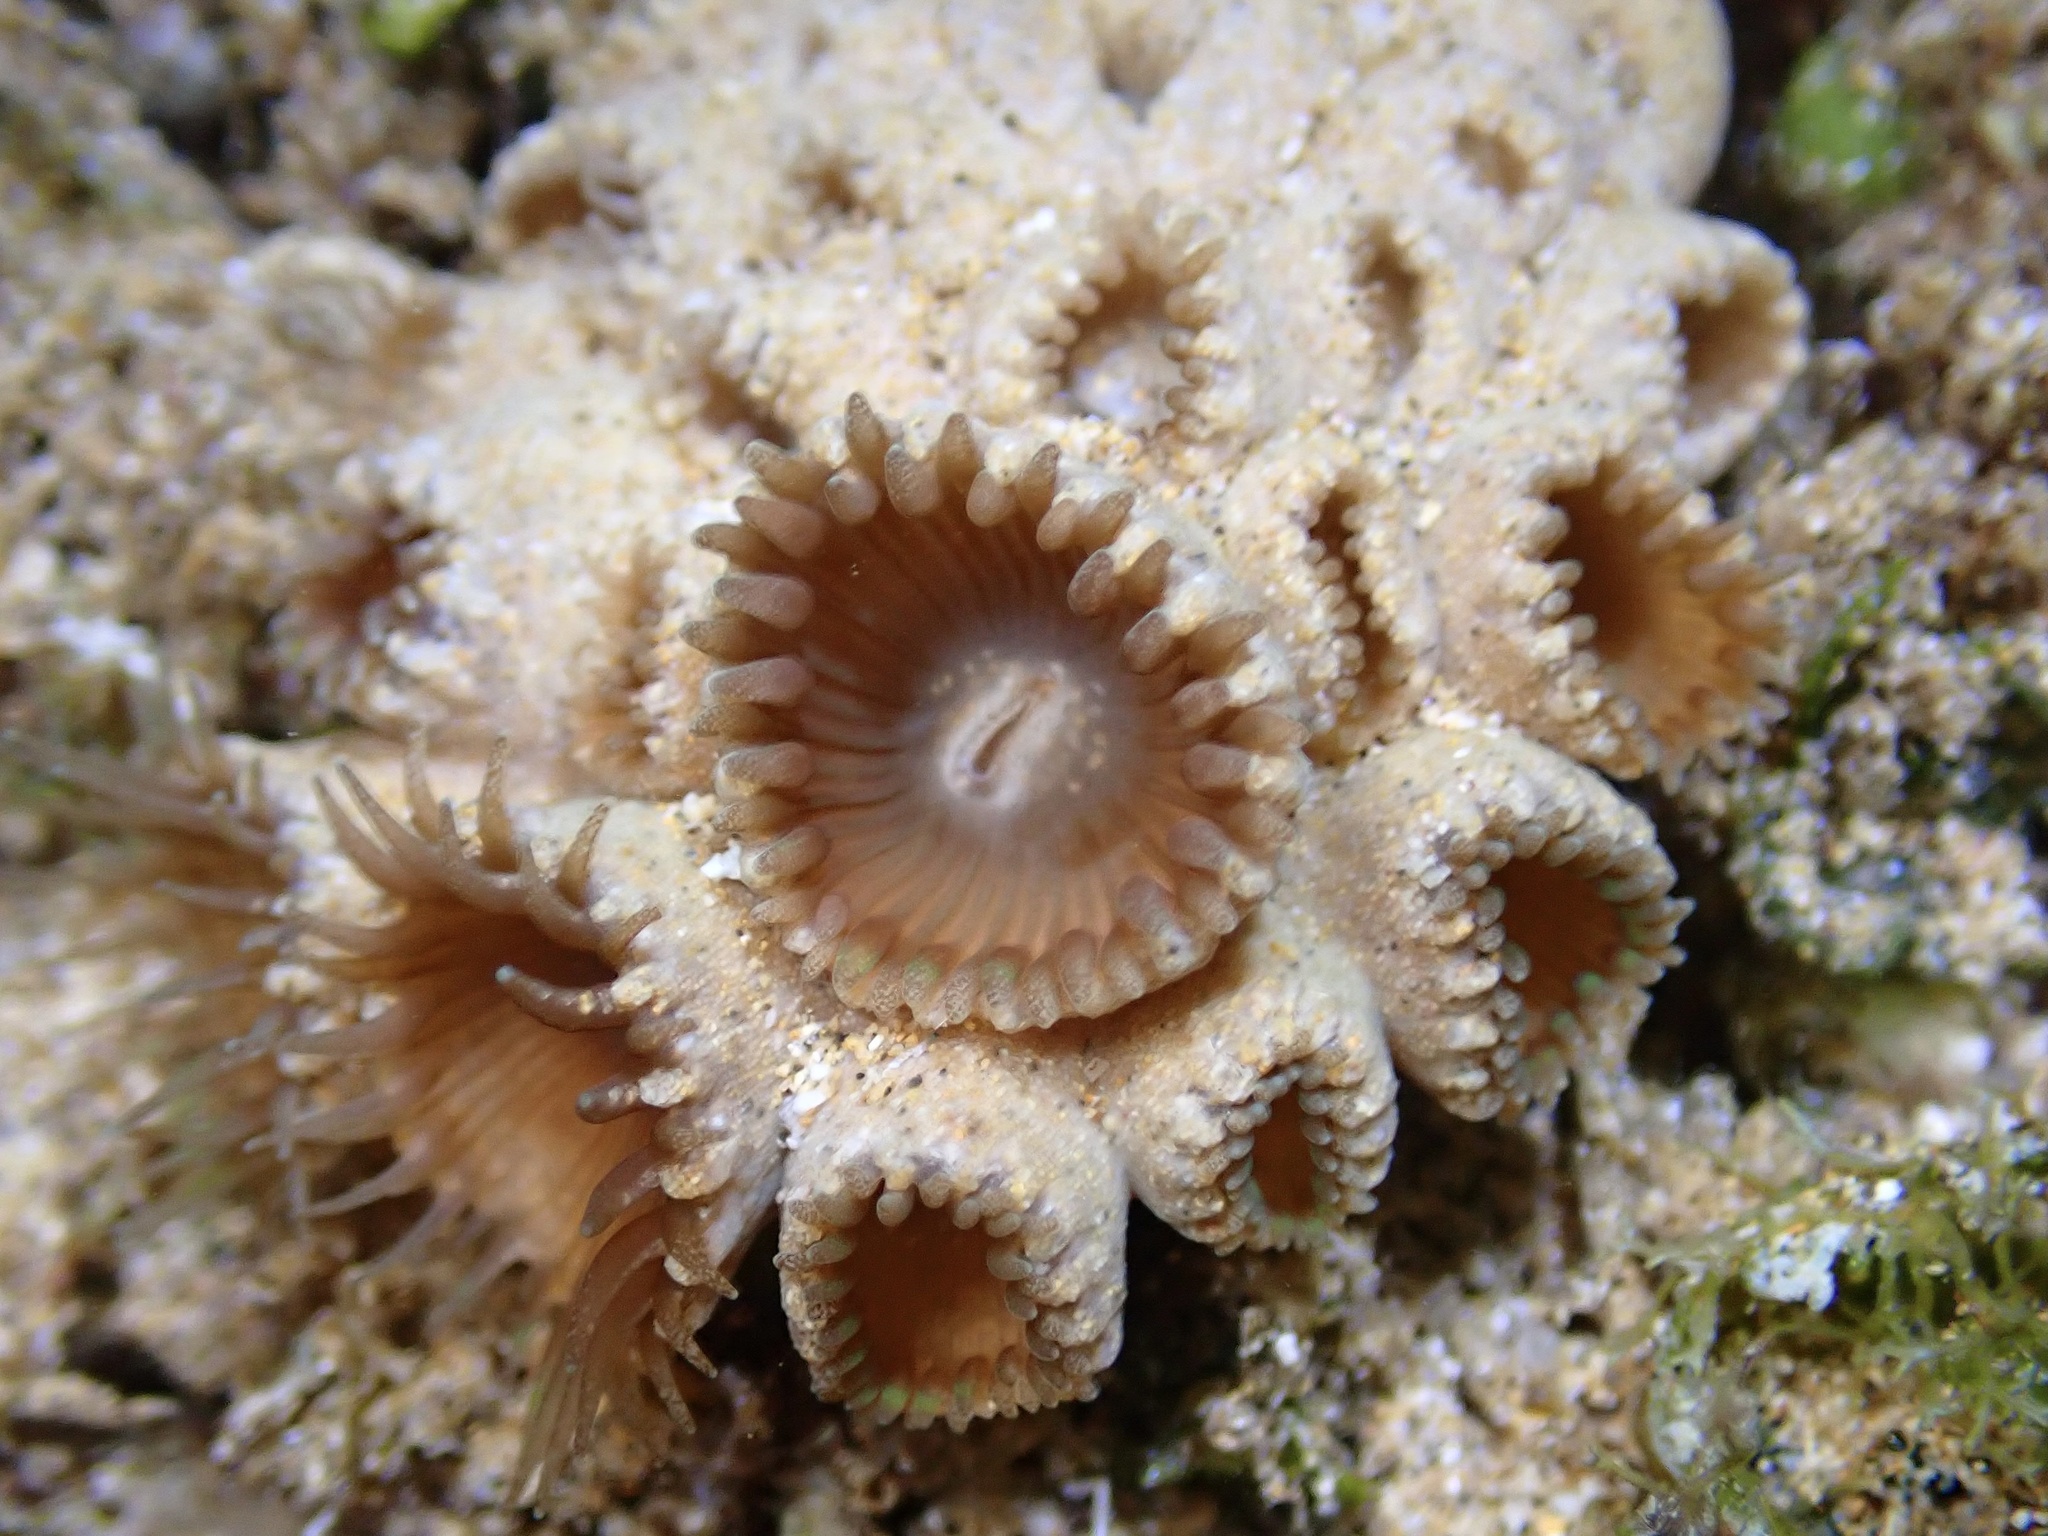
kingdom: Animalia
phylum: Cnidaria
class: Anthozoa
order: Zoantharia
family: Sphenopidae
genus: Palythoa
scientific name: Palythoa tuberculosa
